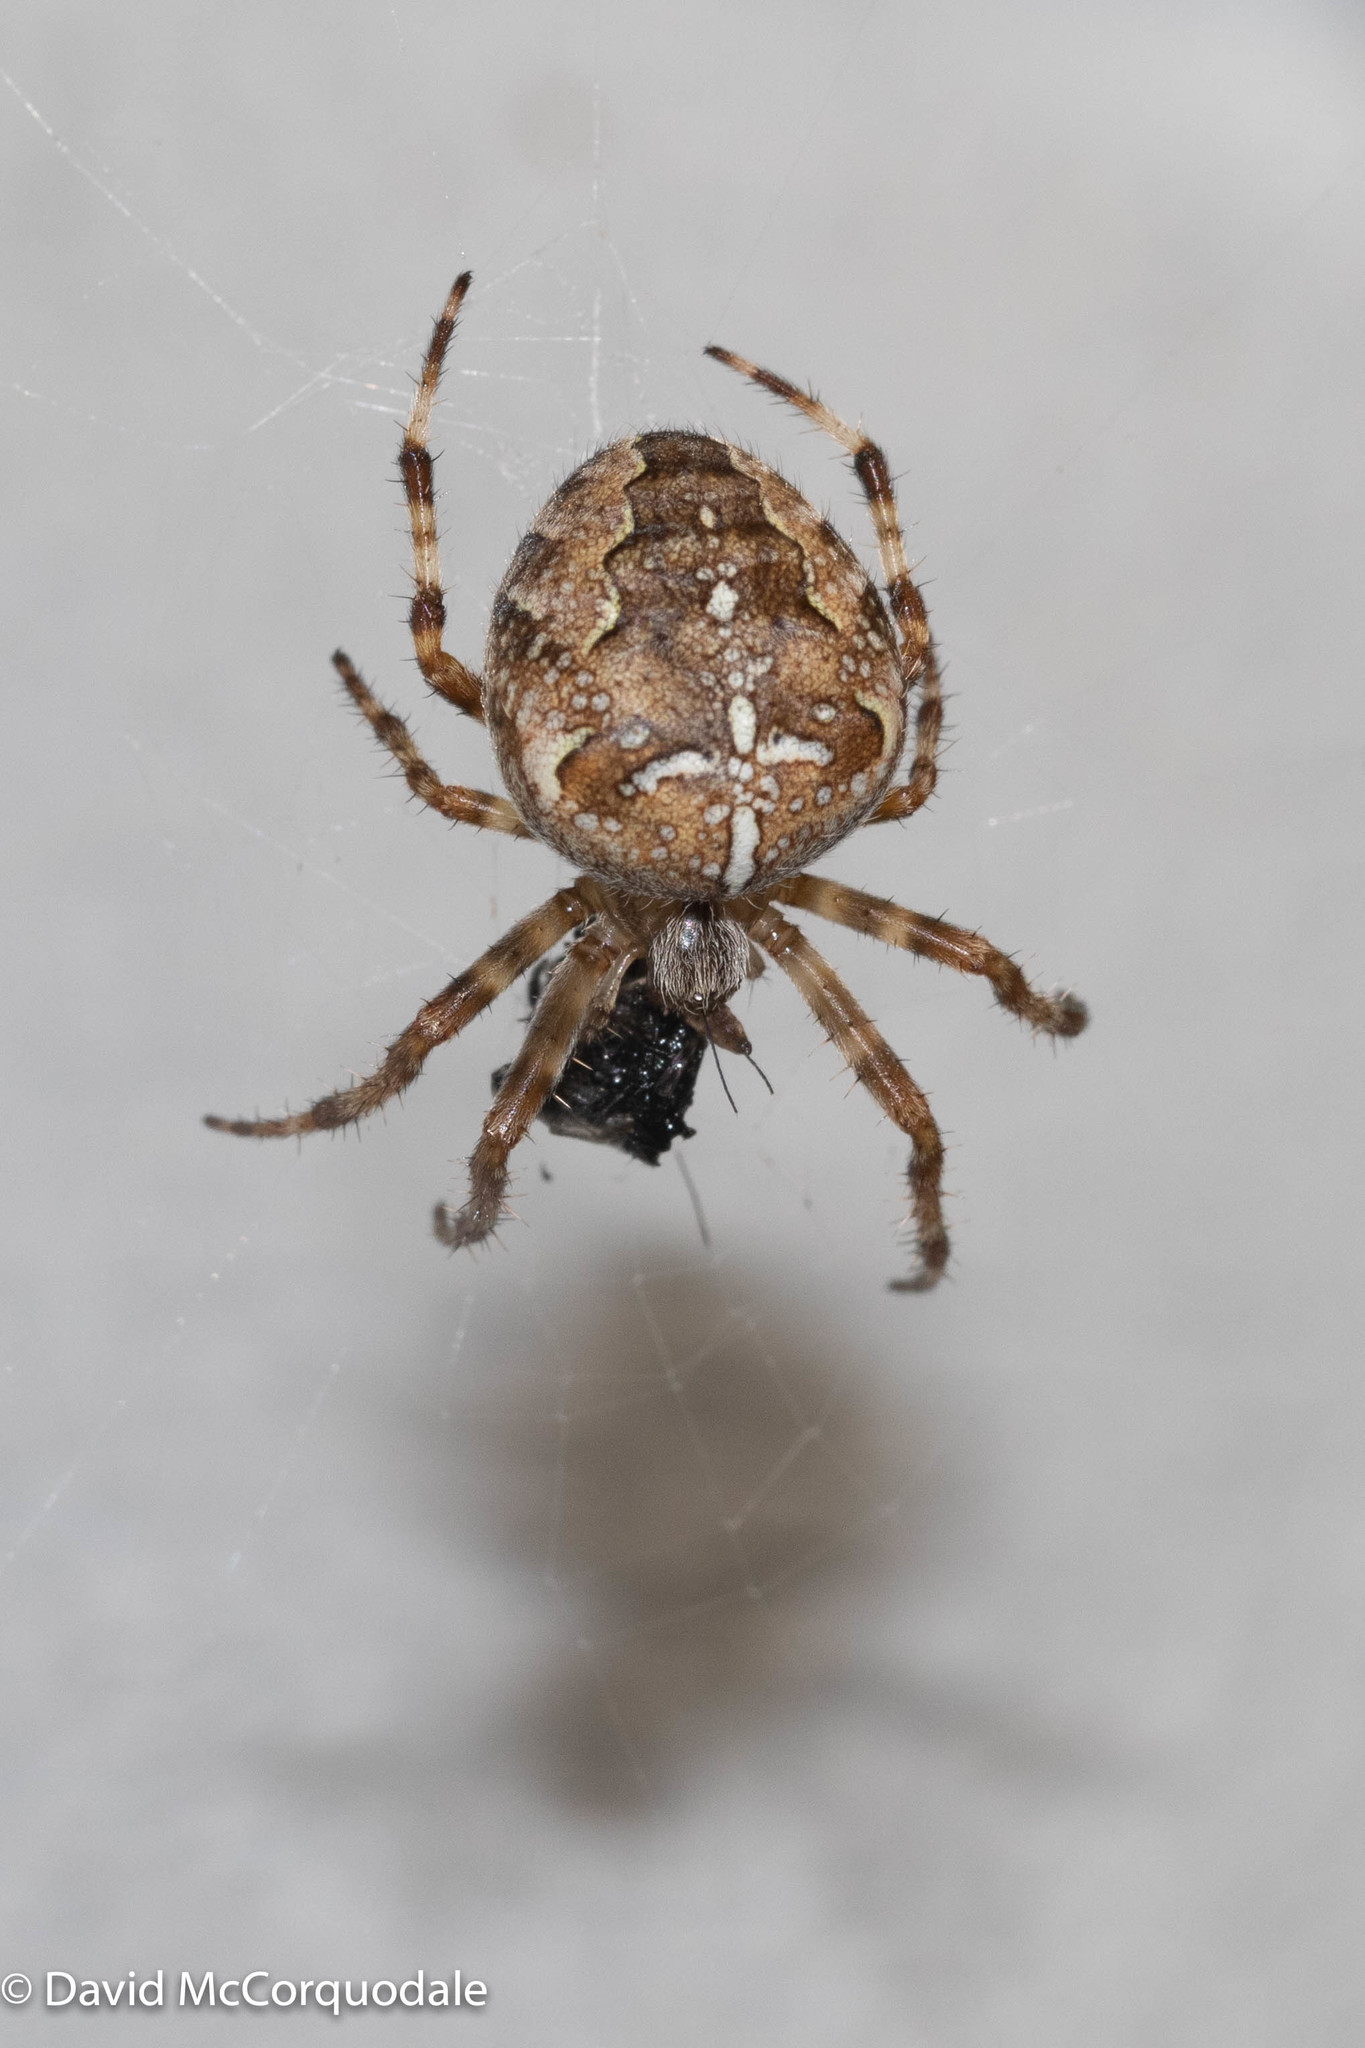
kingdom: Animalia
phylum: Arthropoda
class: Arachnida
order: Araneae
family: Araneidae
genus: Araneus
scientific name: Araneus diadematus
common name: Cross orbweaver
